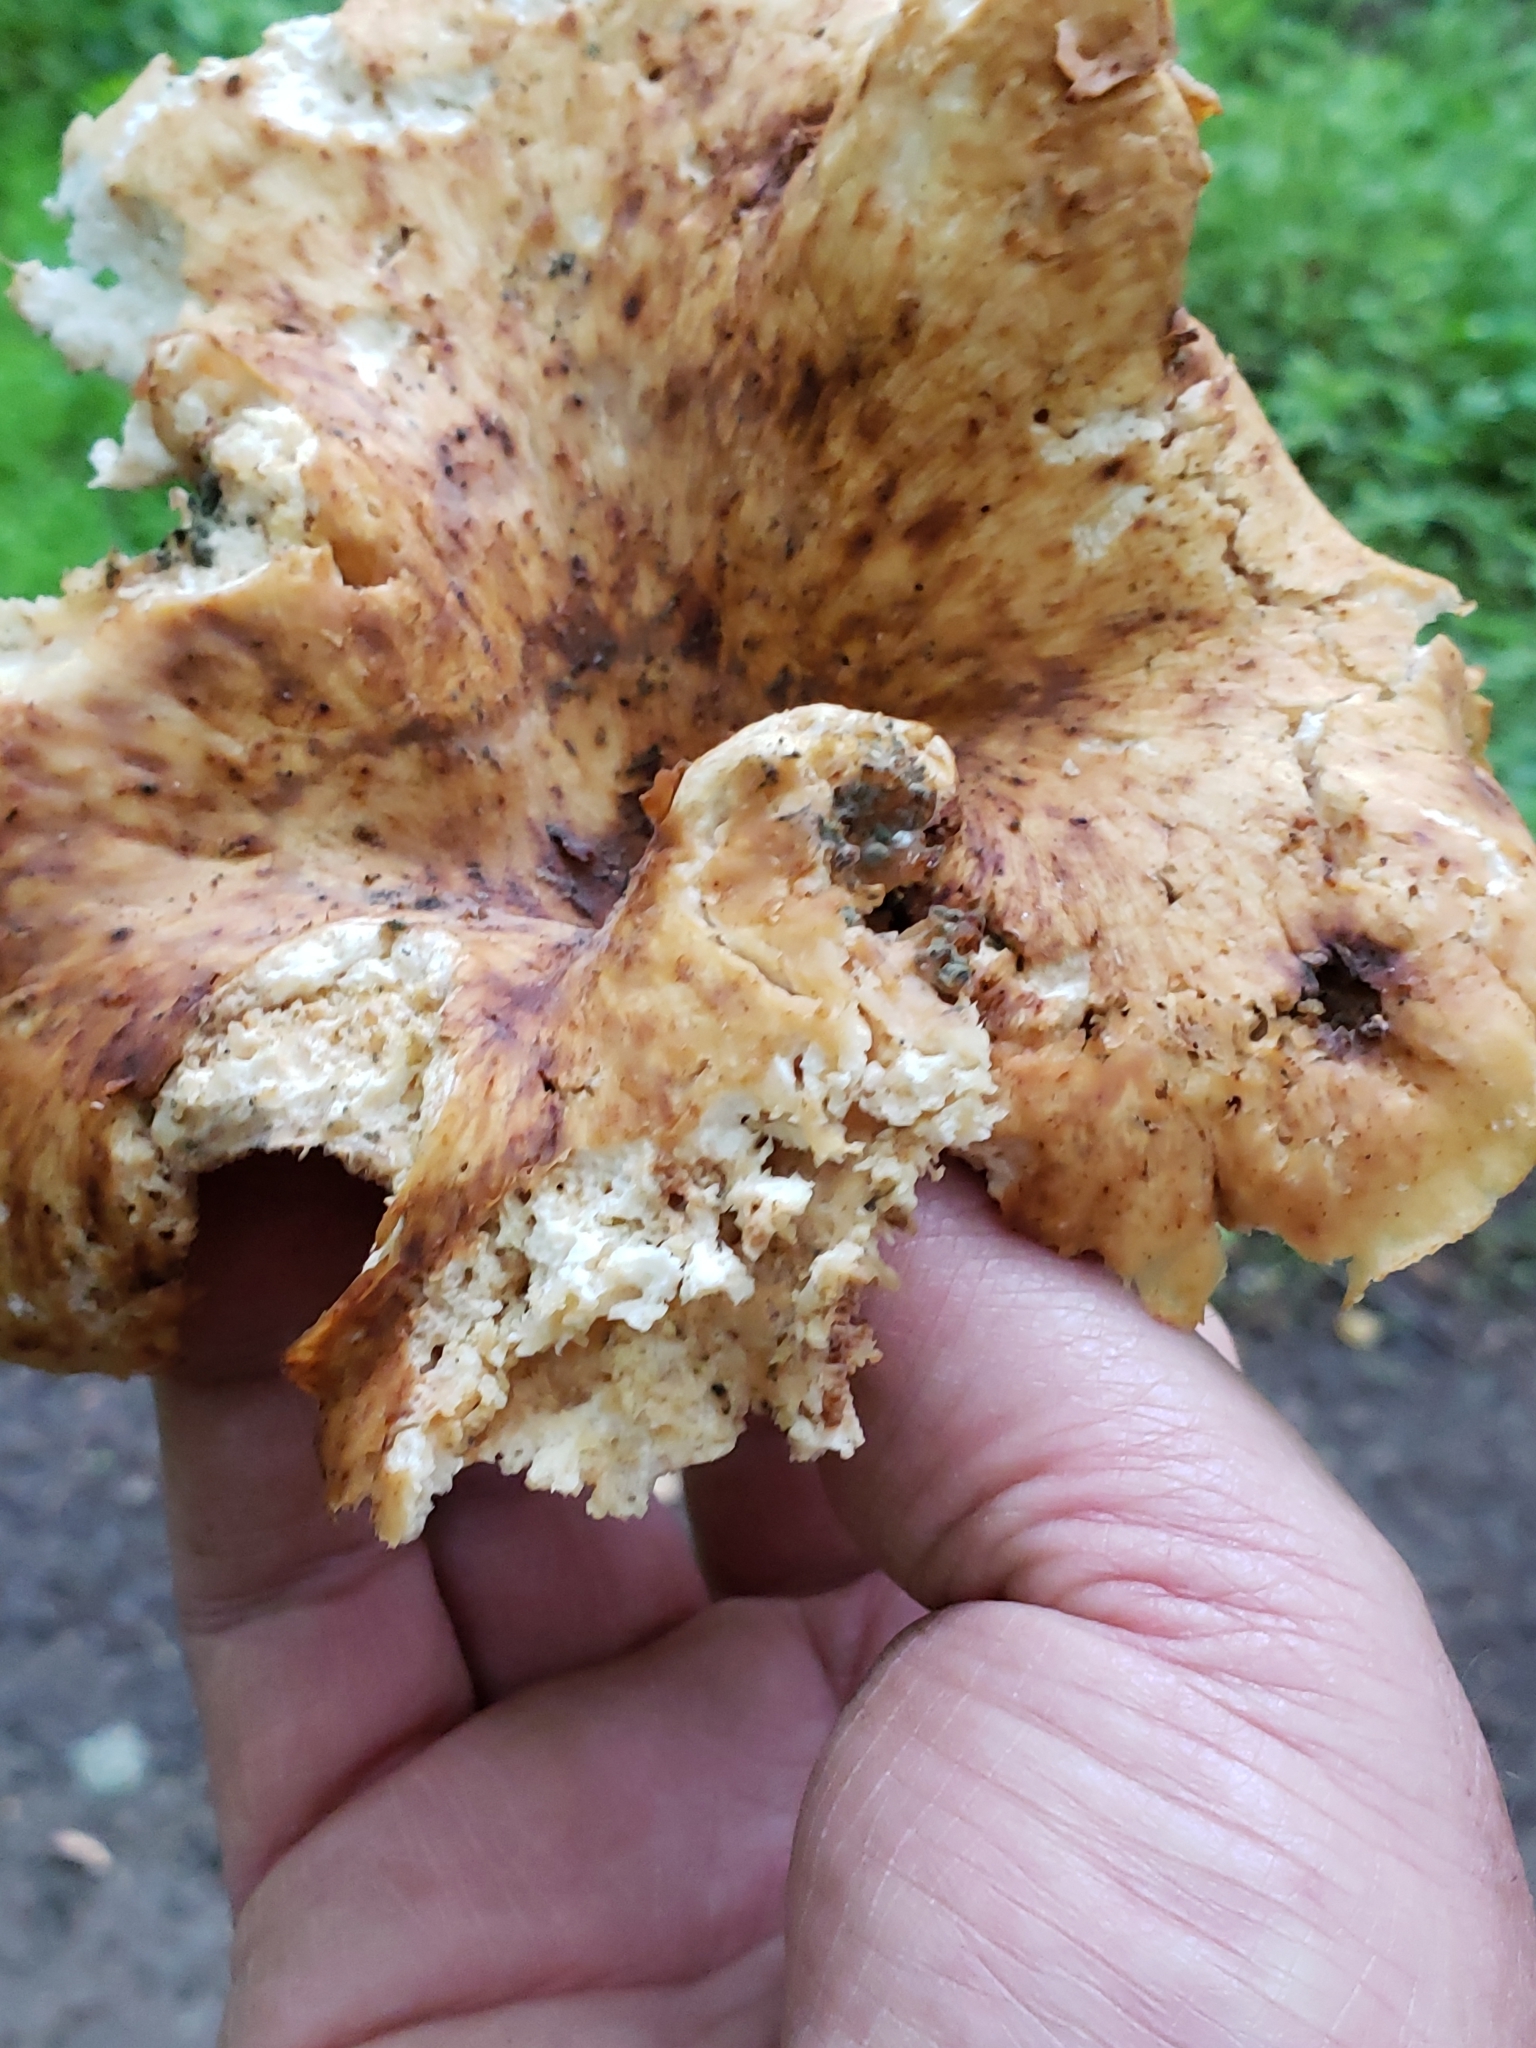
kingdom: Fungi
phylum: Basidiomycota
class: Agaricomycetes
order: Polyporales
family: Polyporaceae
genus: Cerioporus
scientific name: Cerioporus squamosus
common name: Dryad's saddle
